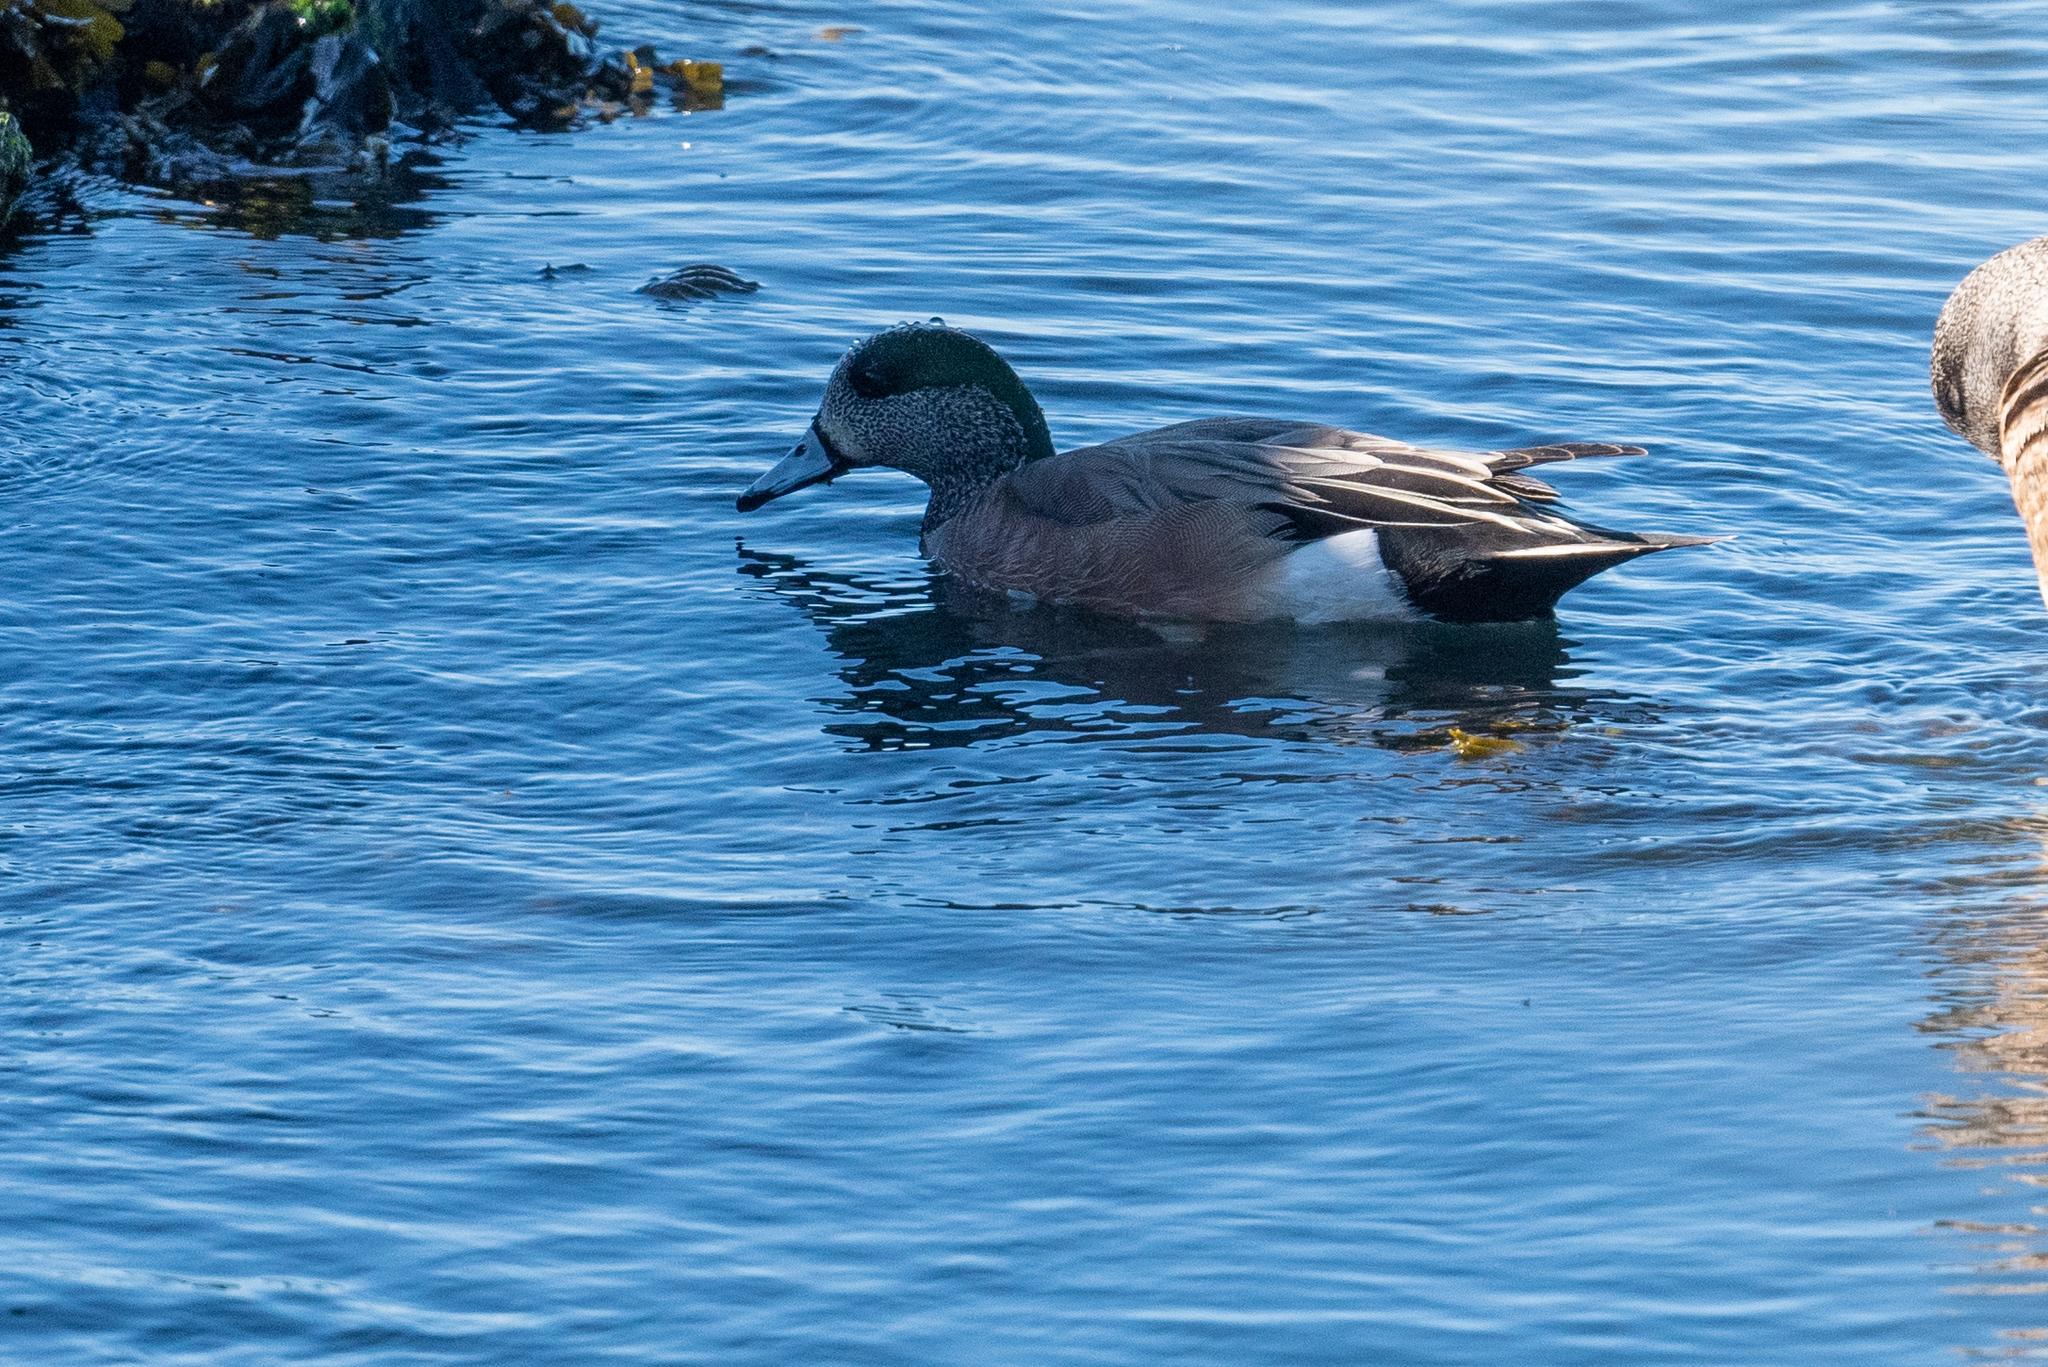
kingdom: Animalia
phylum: Chordata
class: Aves
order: Anseriformes
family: Anatidae
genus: Mareca
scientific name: Mareca americana
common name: American wigeon
